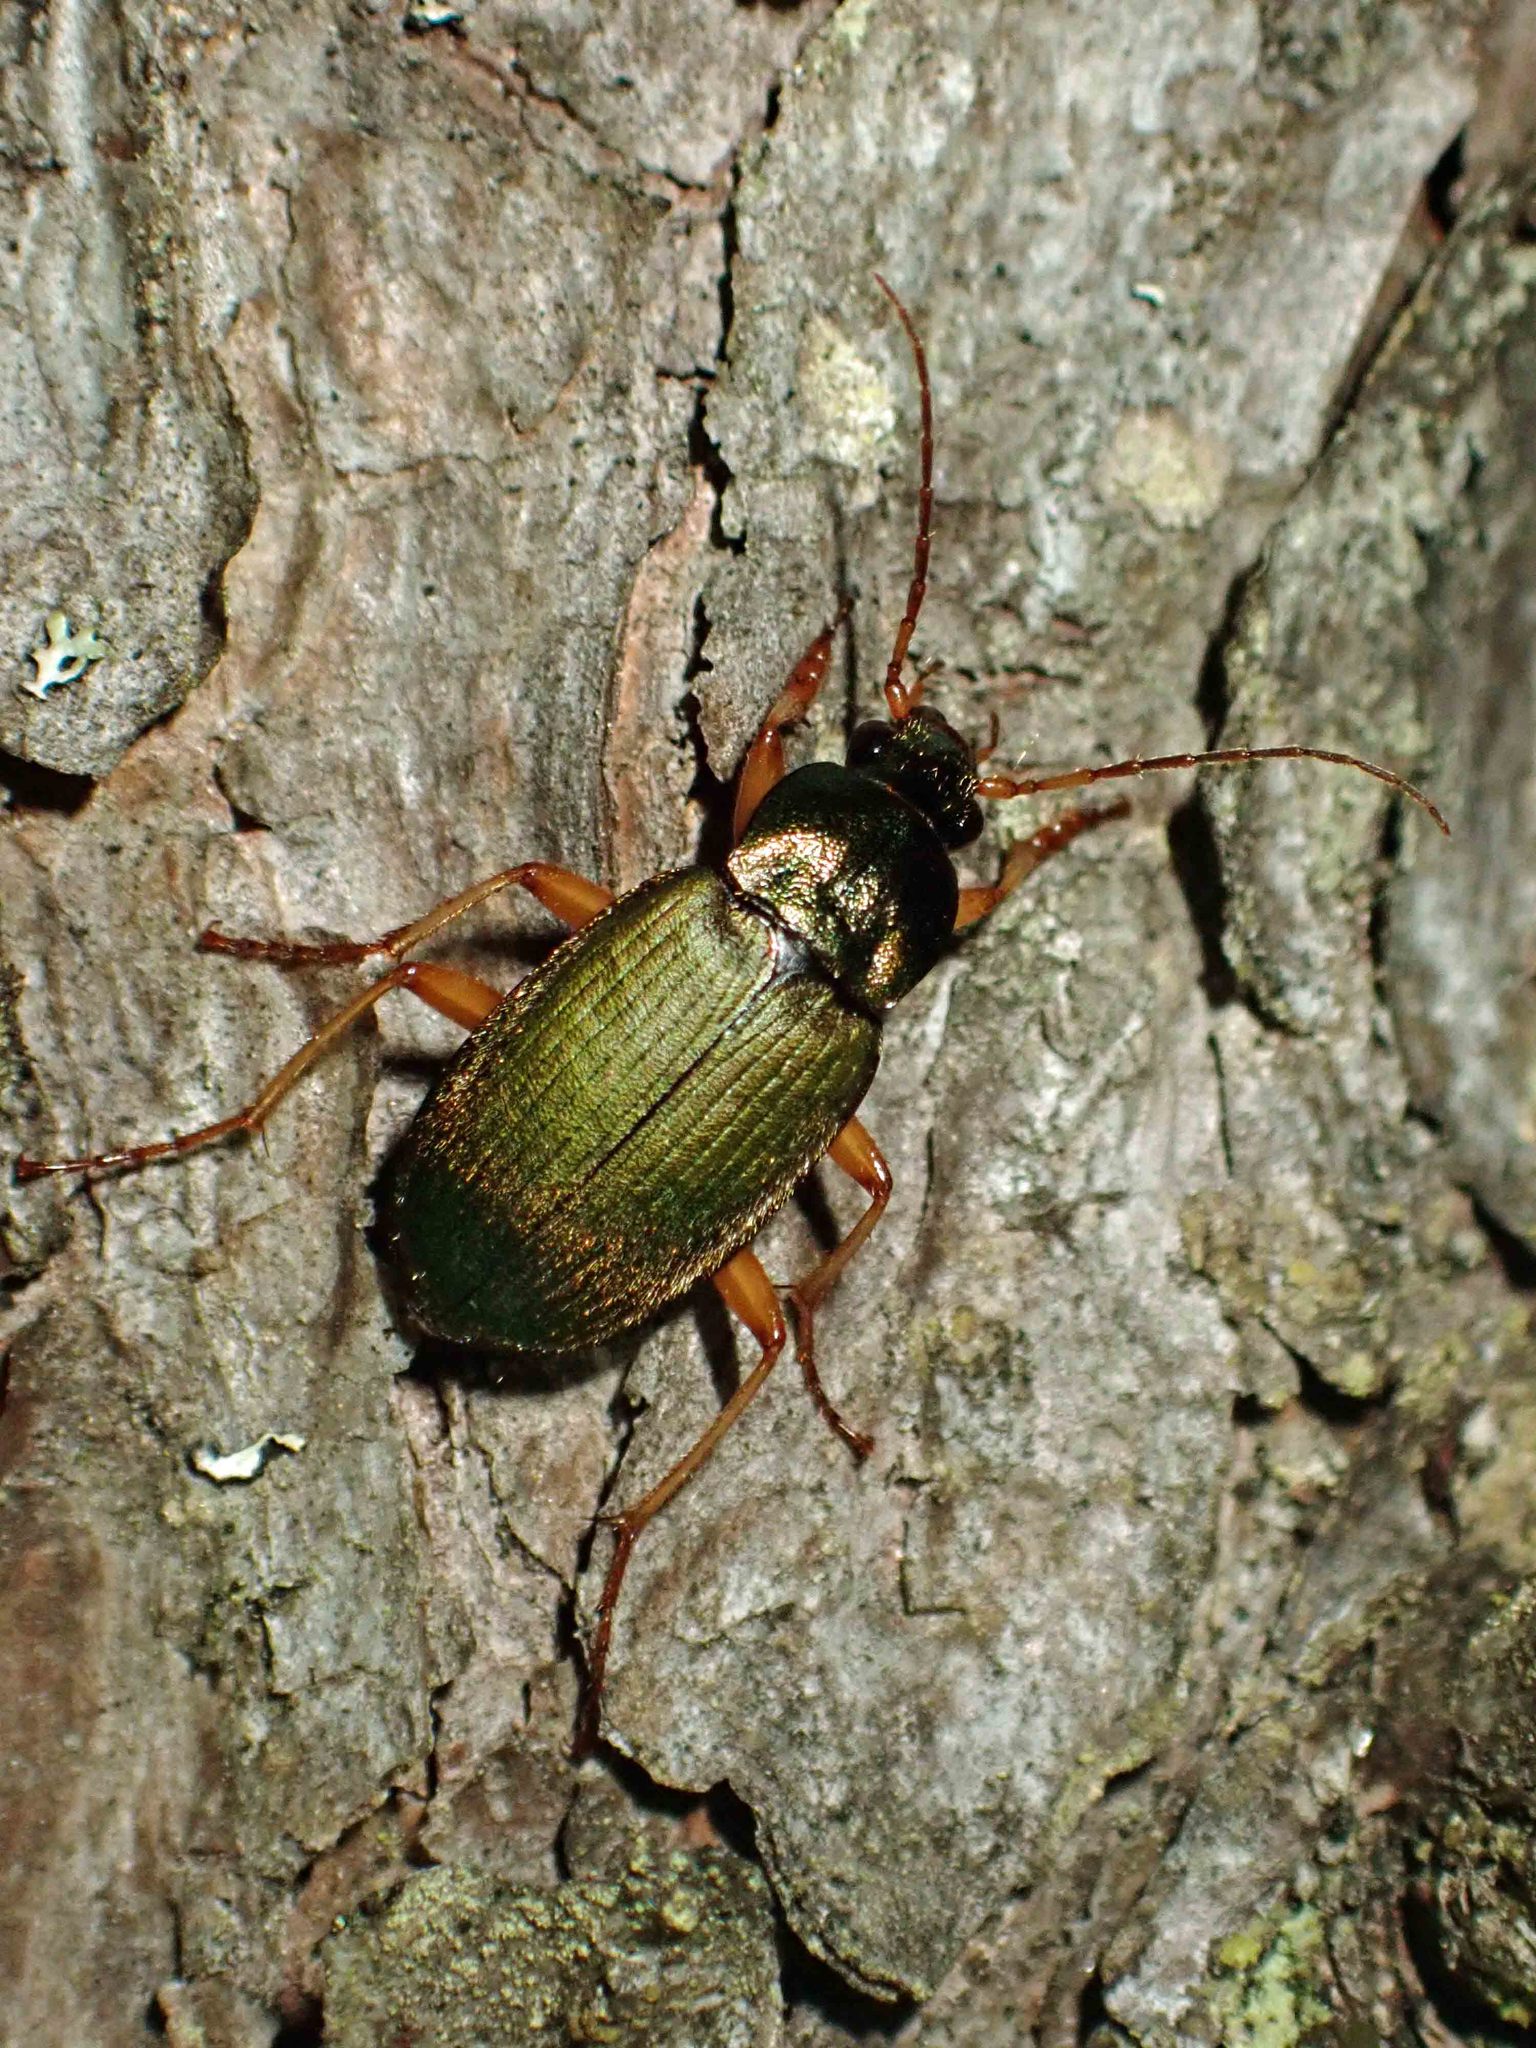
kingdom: Animalia
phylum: Arthropoda
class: Insecta
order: Coleoptera
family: Carabidae
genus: Chlaenius
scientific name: Chlaenius sericeus
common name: Green pubescent ground beetle
